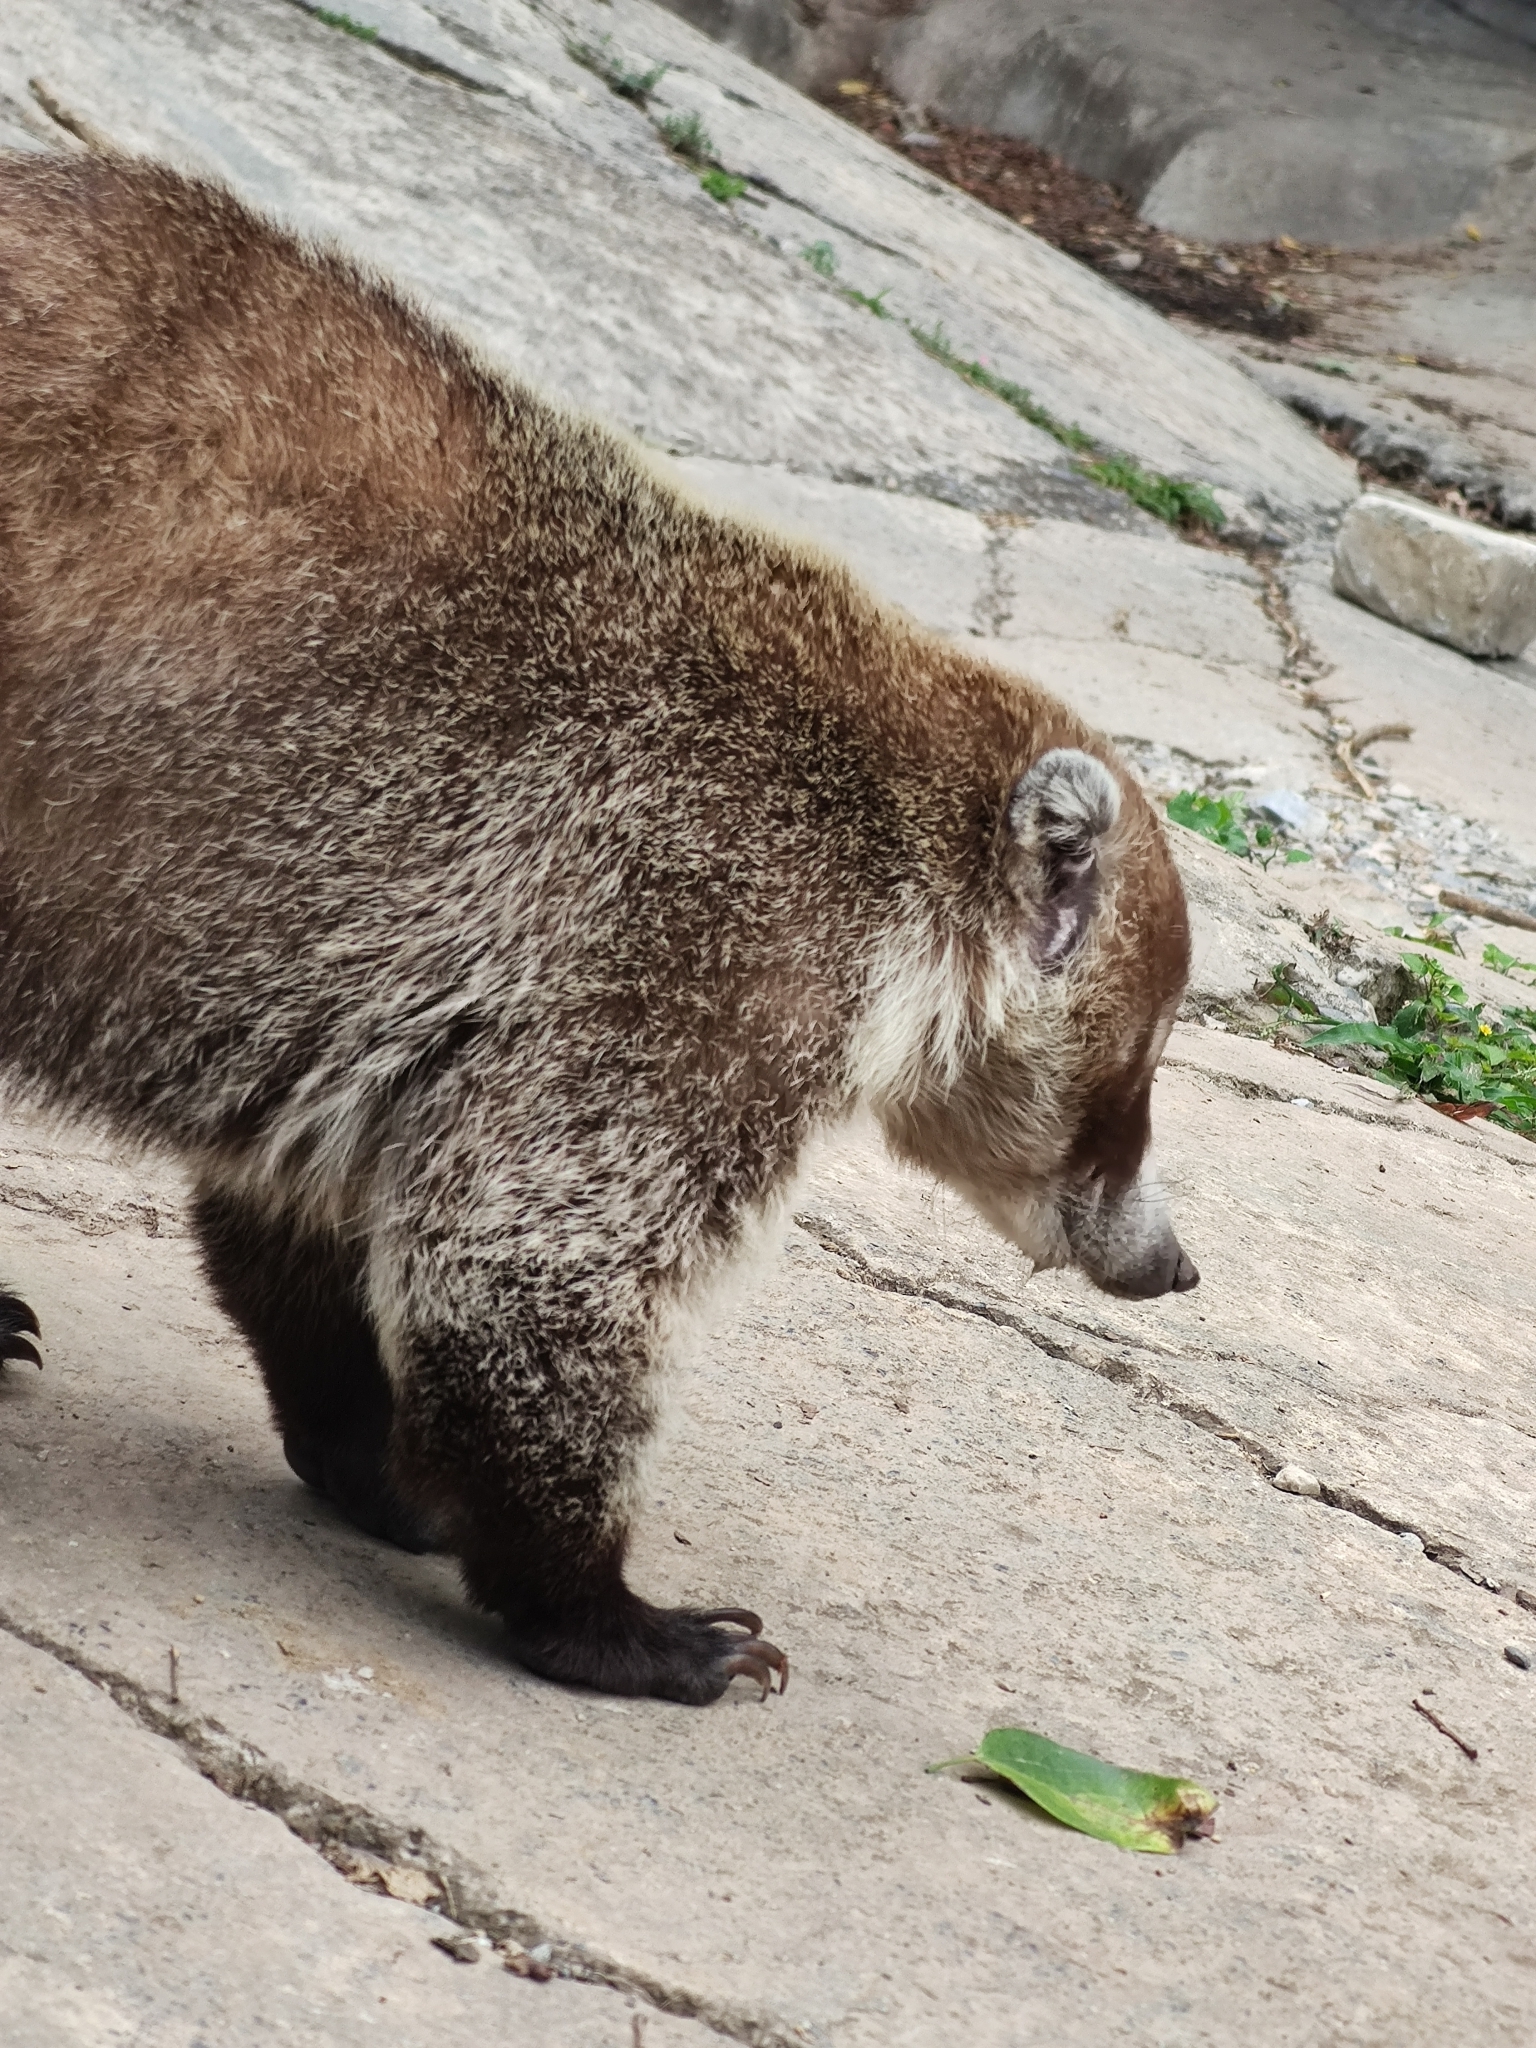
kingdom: Animalia
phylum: Chordata
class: Mammalia
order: Carnivora
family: Procyonidae
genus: Nasua
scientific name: Nasua narica
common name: White-nosed coati
